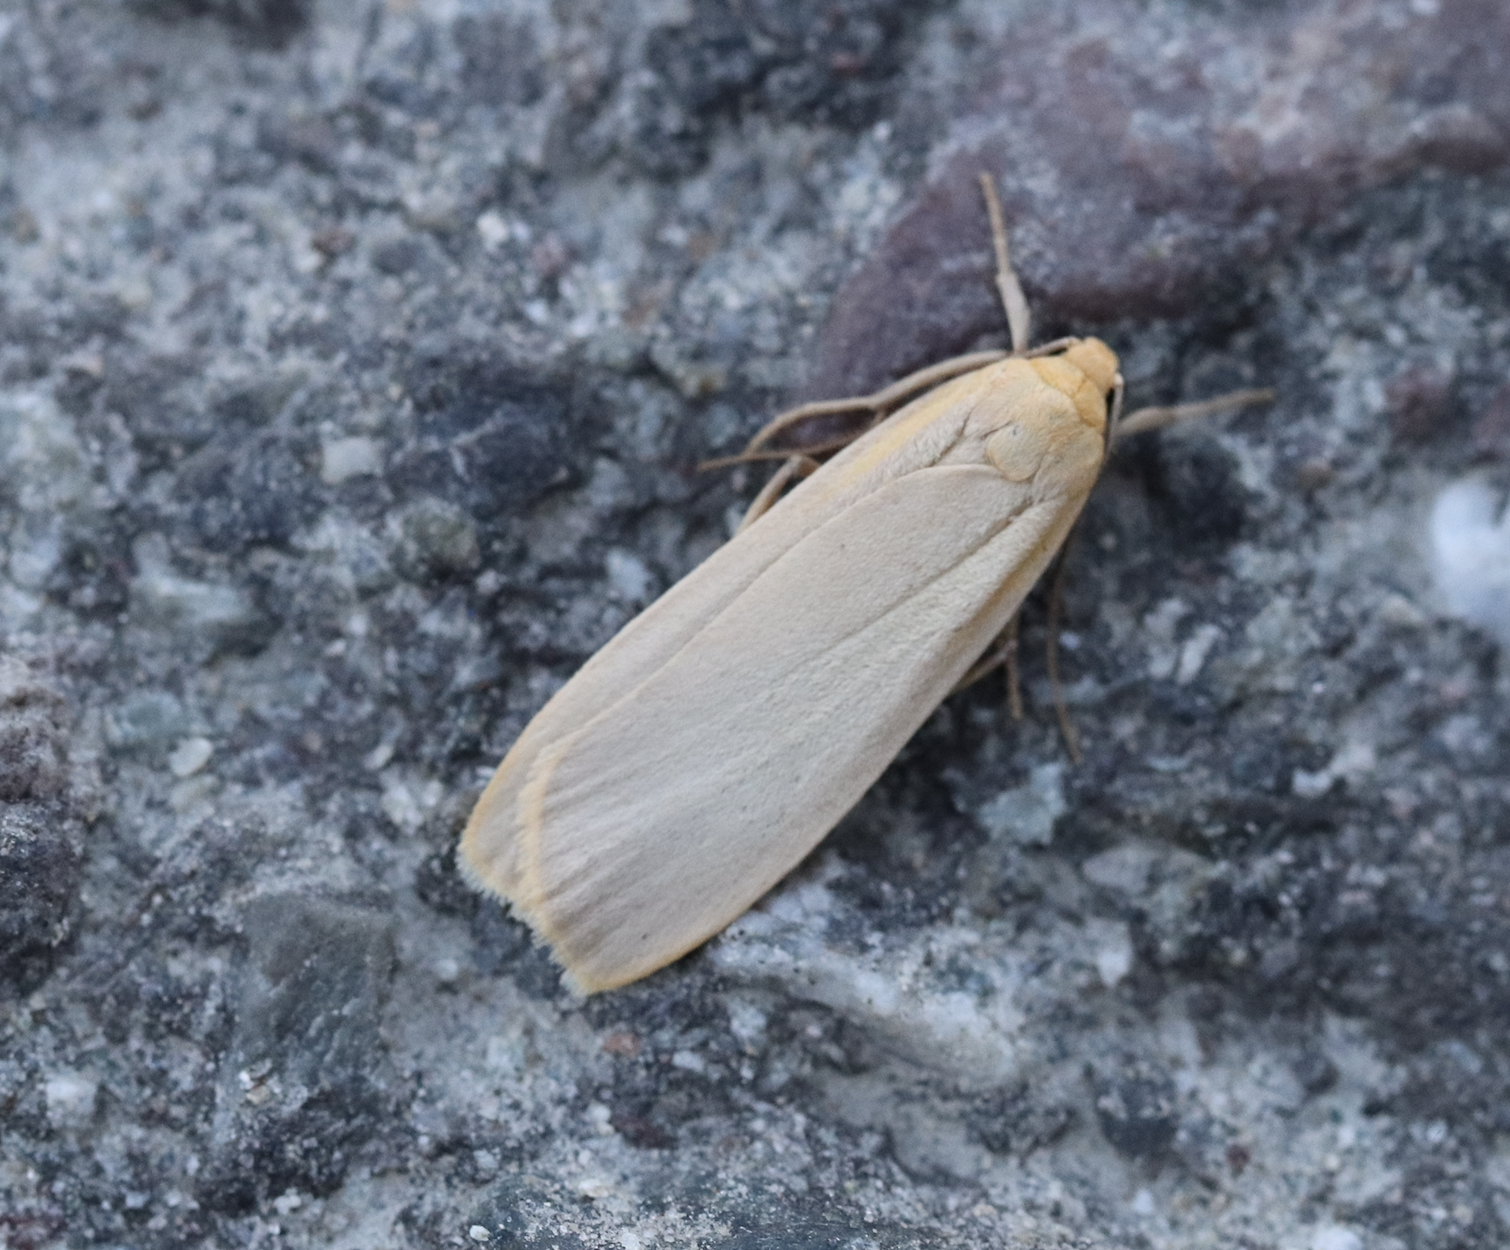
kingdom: Animalia
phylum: Arthropoda
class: Insecta
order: Lepidoptera
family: Erebidae
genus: Katha
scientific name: Katha depressa
